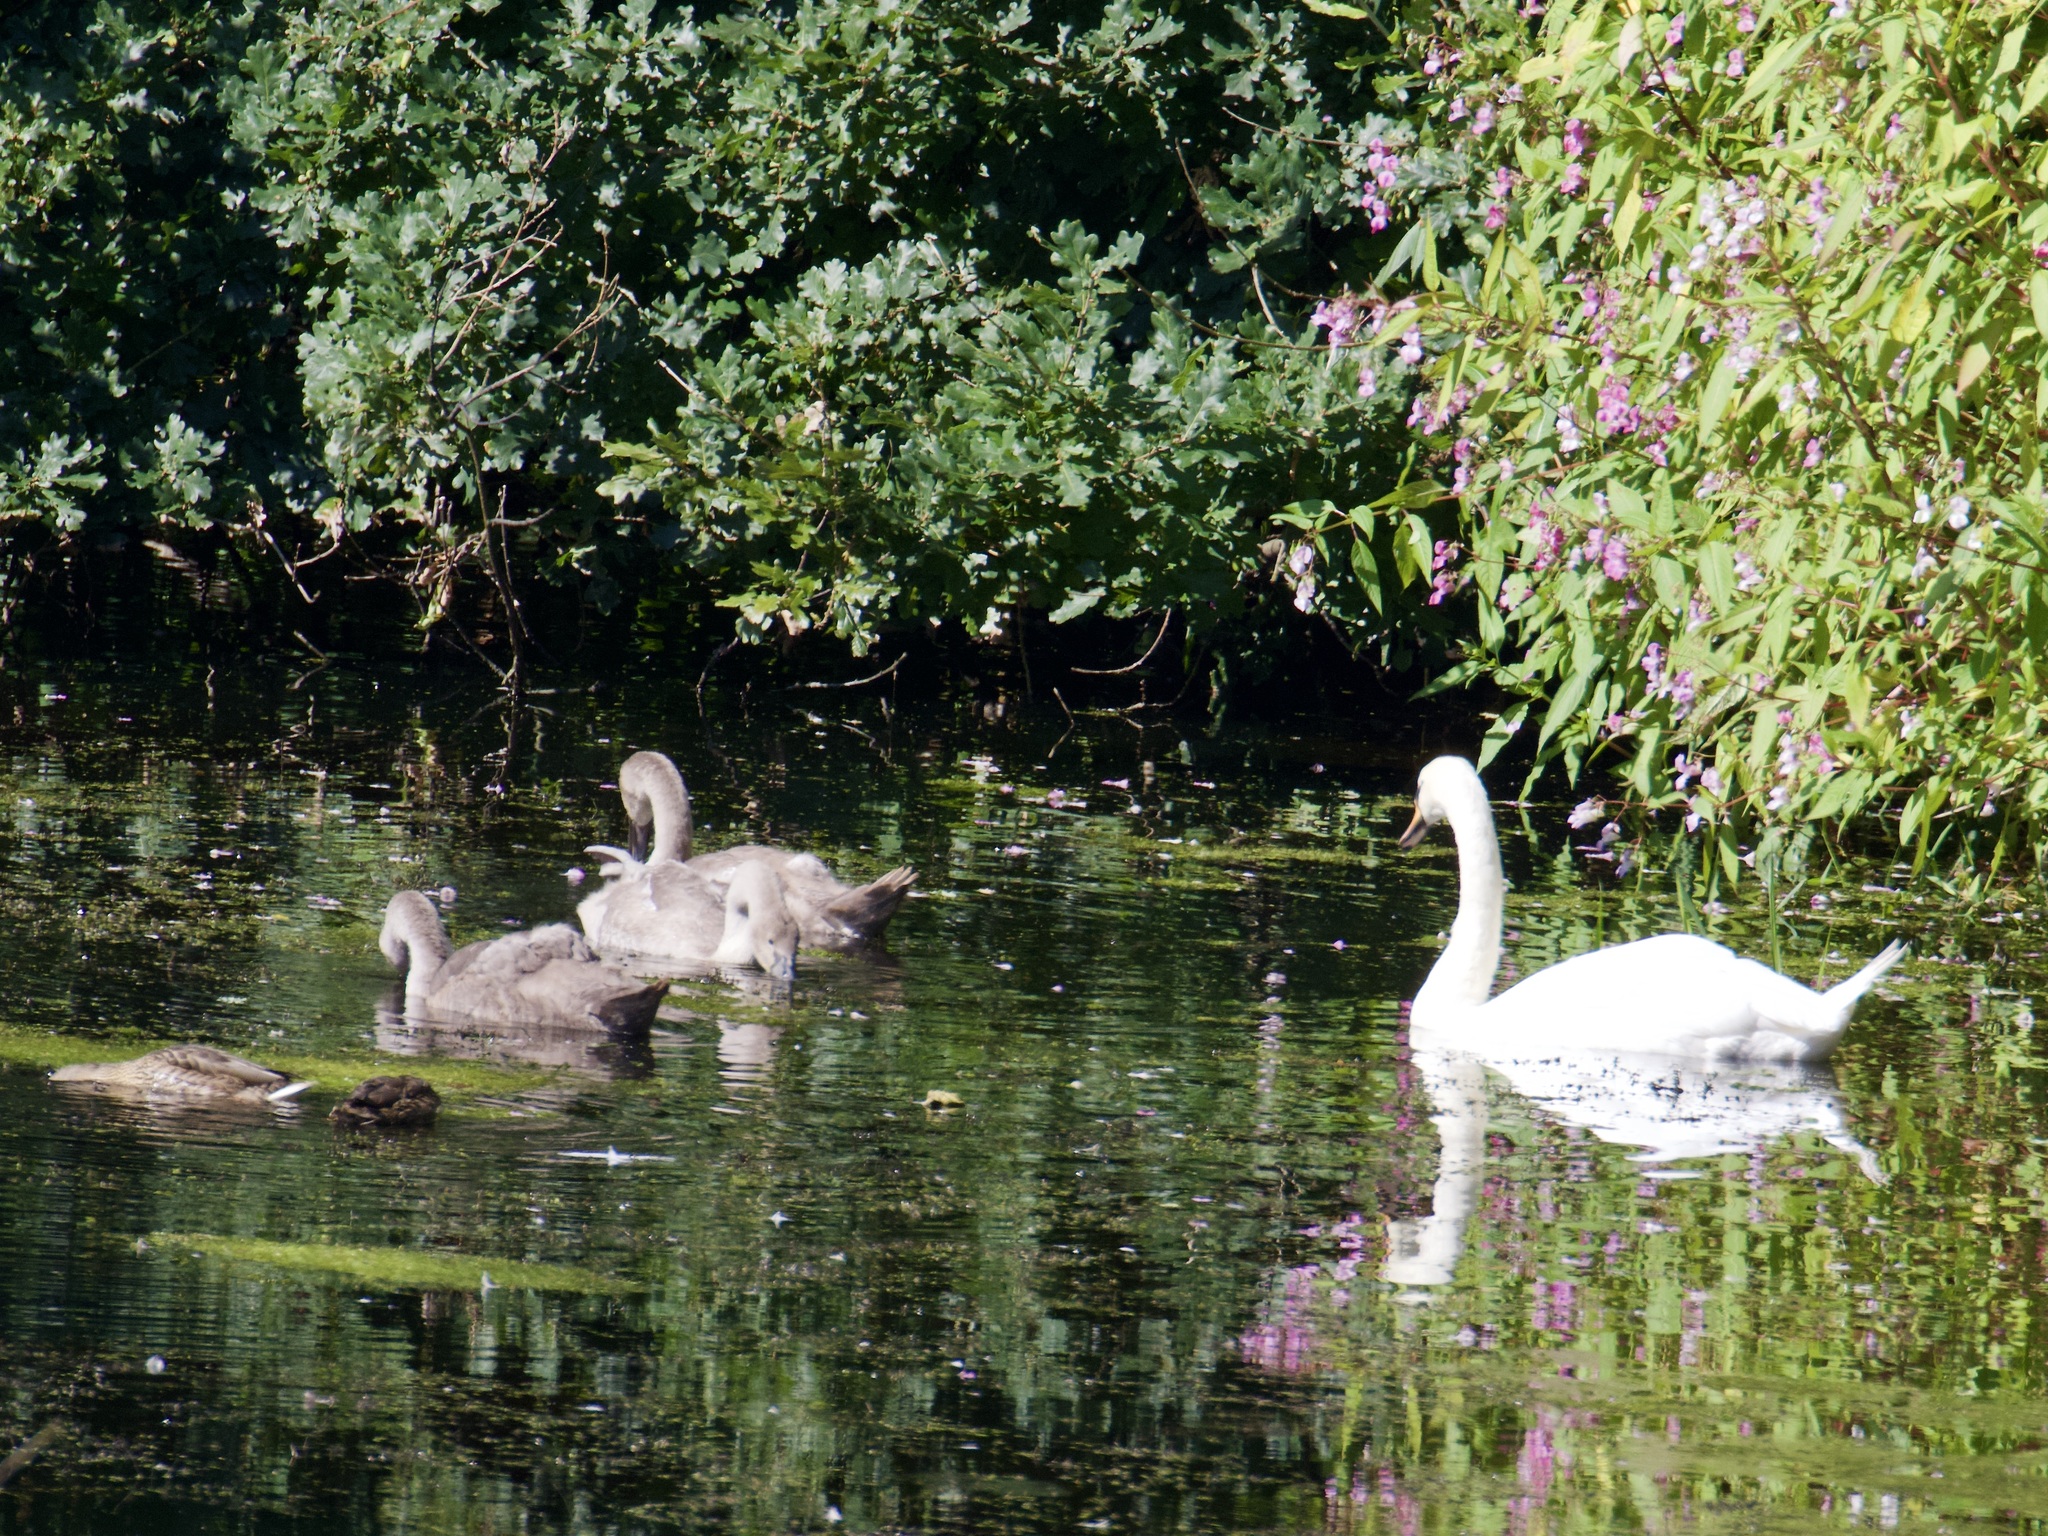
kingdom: Animalia
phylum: Chordata
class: Aves
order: Anseriformes
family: Anatidae
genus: Cygnus
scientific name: Cygnus olor
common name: Mute swan
